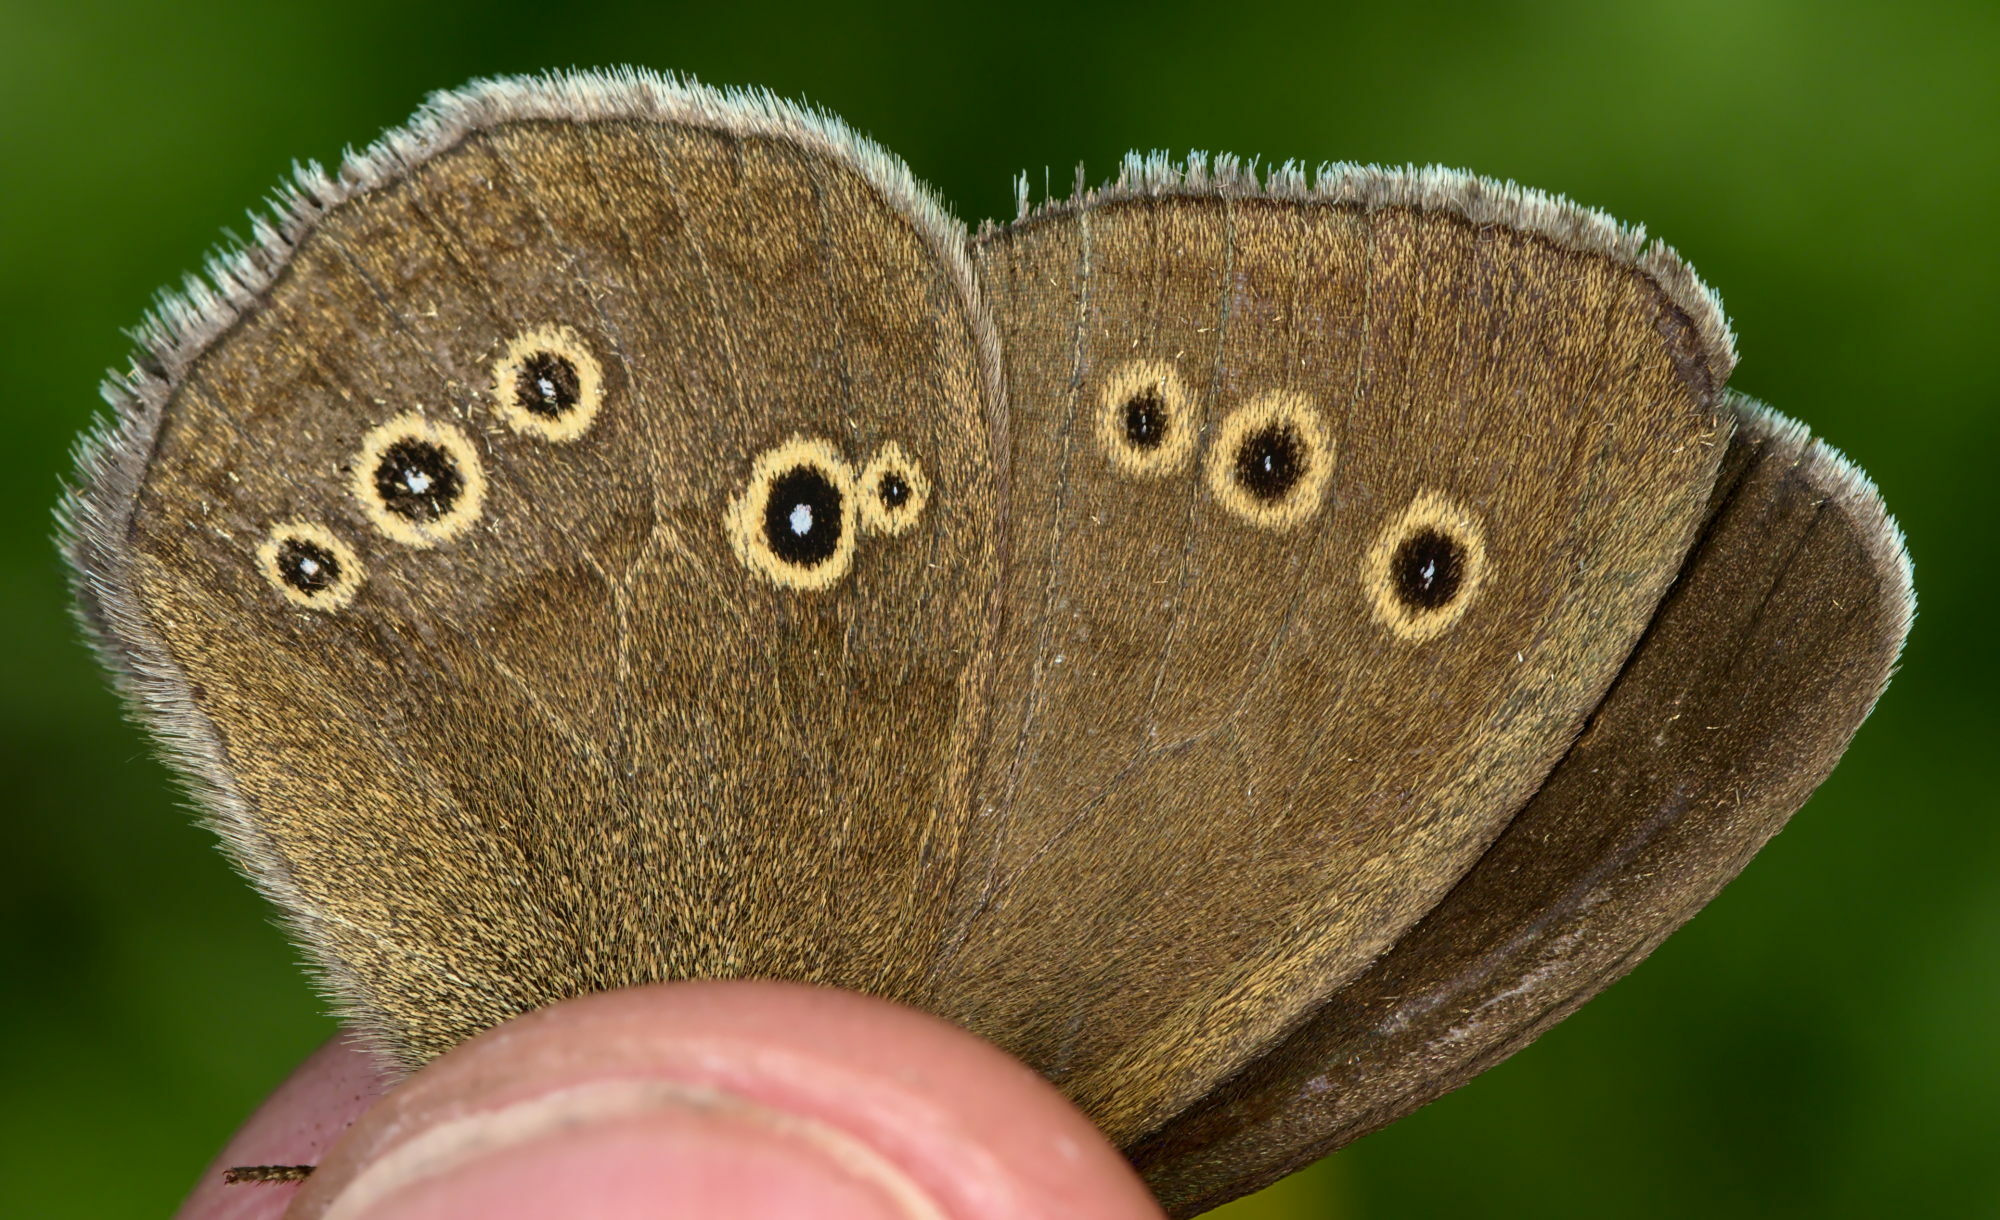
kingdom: Animalia
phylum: Arthropoda
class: Insecta
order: Lepidoptera
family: Nymphalidae
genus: Aphantopus
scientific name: Aphantopus hyperantus
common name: Ringlet
